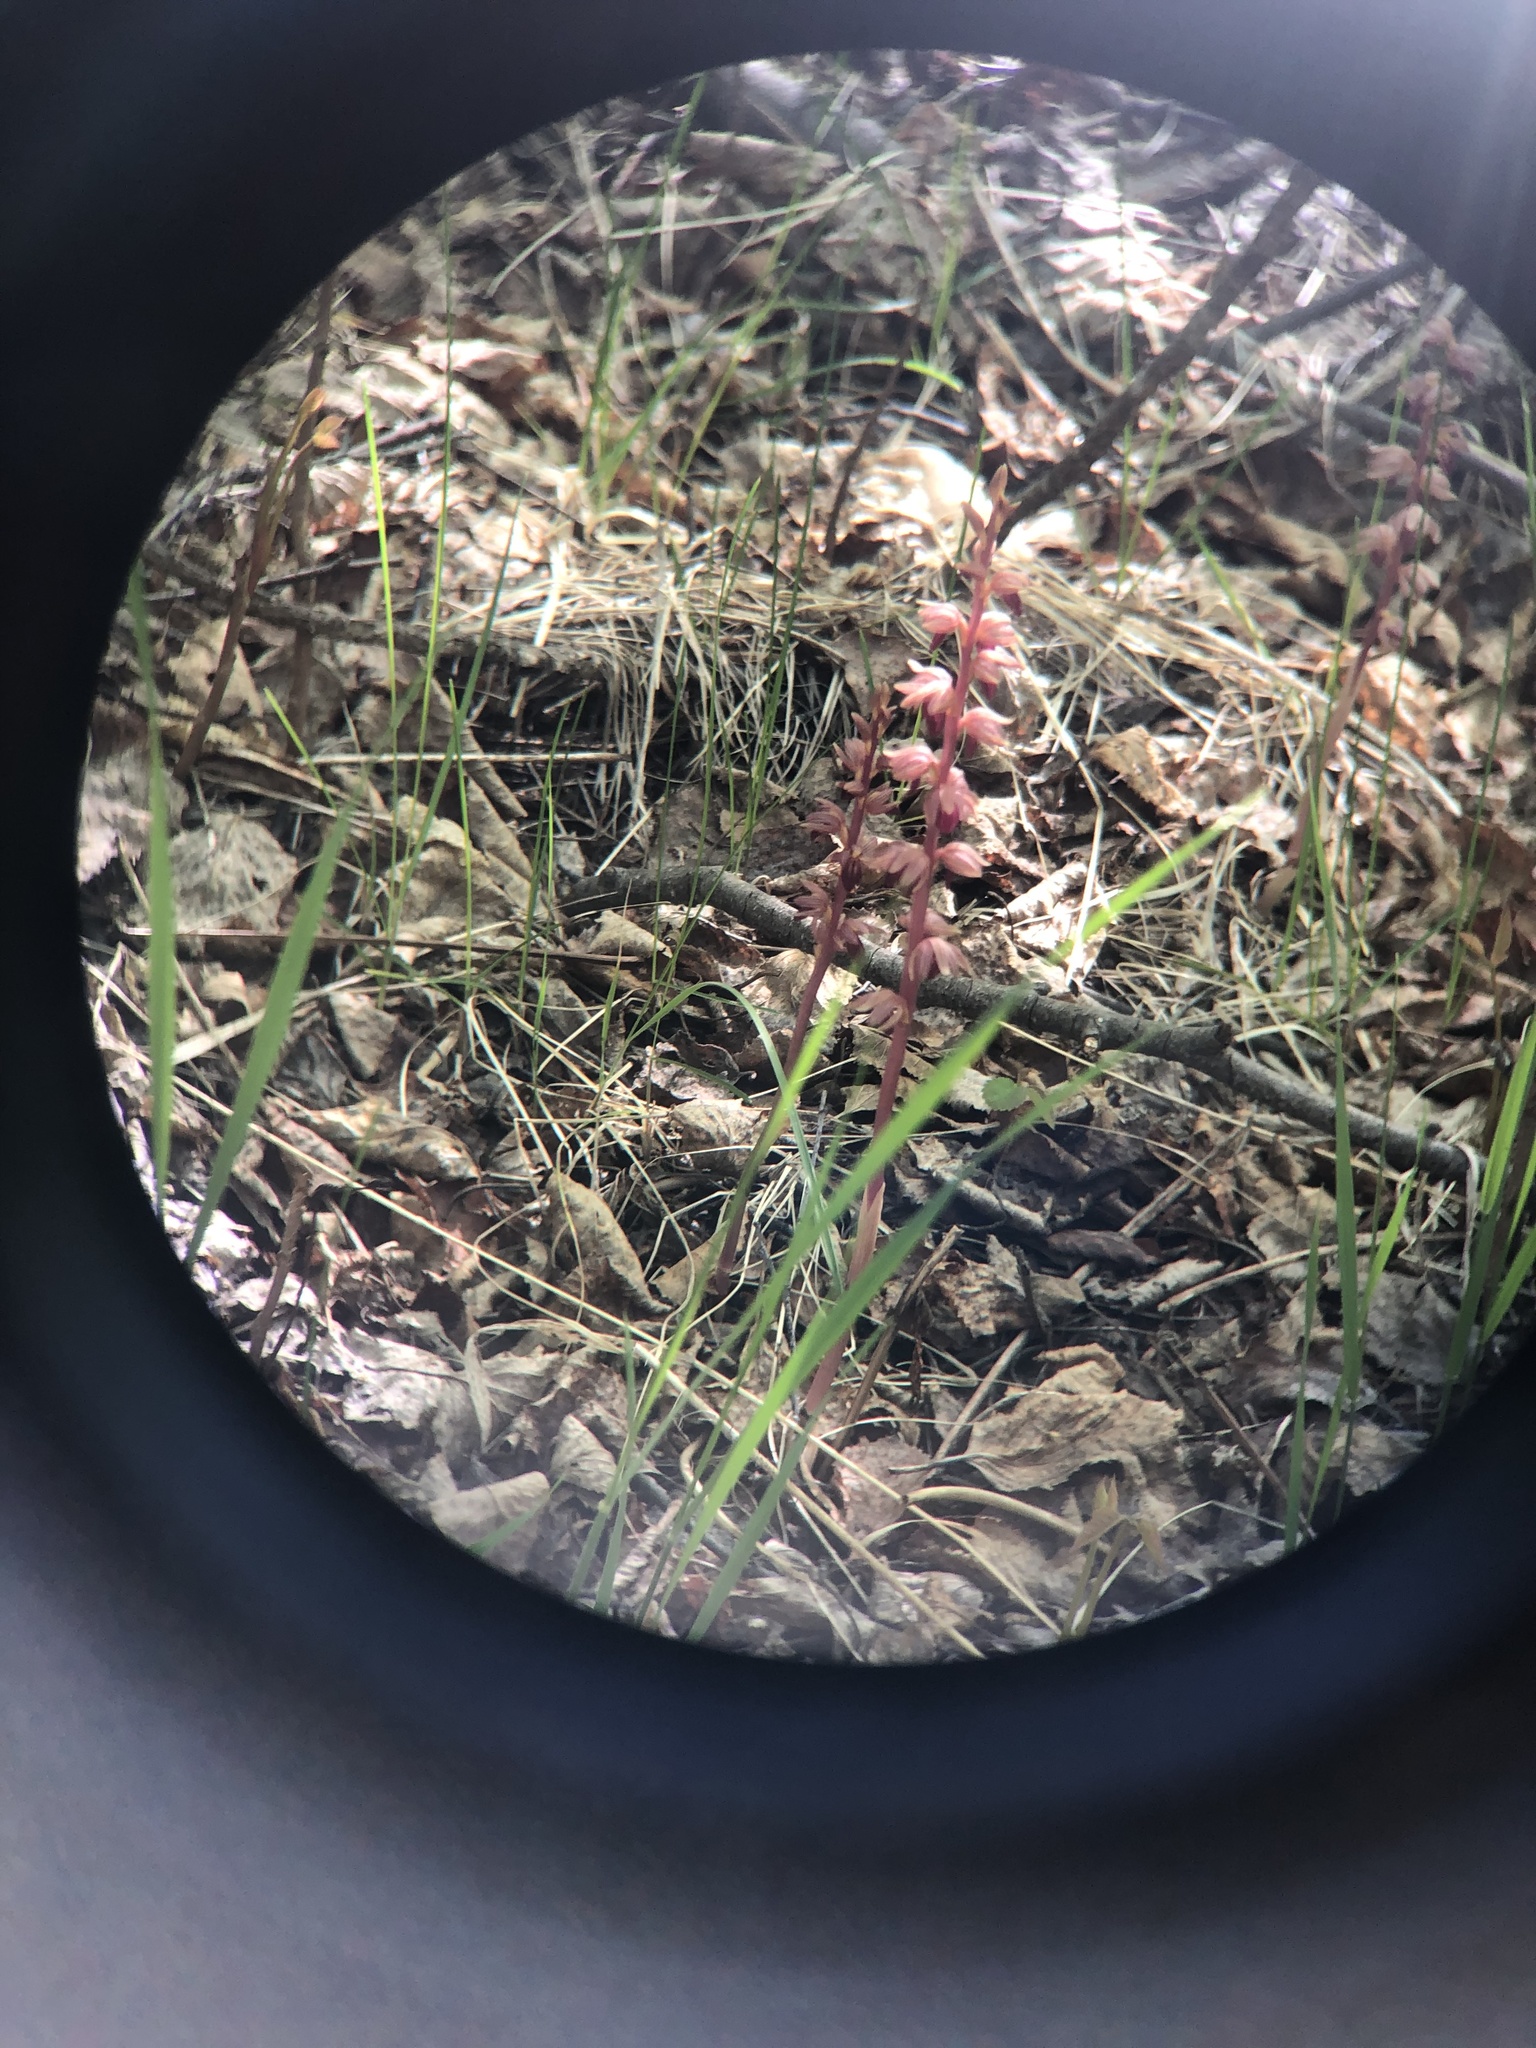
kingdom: Plantae
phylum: Tracheophyta
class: Liliopsida
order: Asparagales
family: Orchidaceae
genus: Corallorhiza
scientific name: Corallorhiza striata
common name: Hooded coralroot
